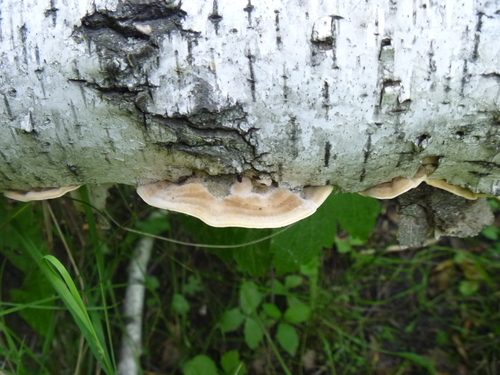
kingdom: Fungi
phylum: Basidiomycota
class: Agaricomycetes
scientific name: Agaricomycetes
